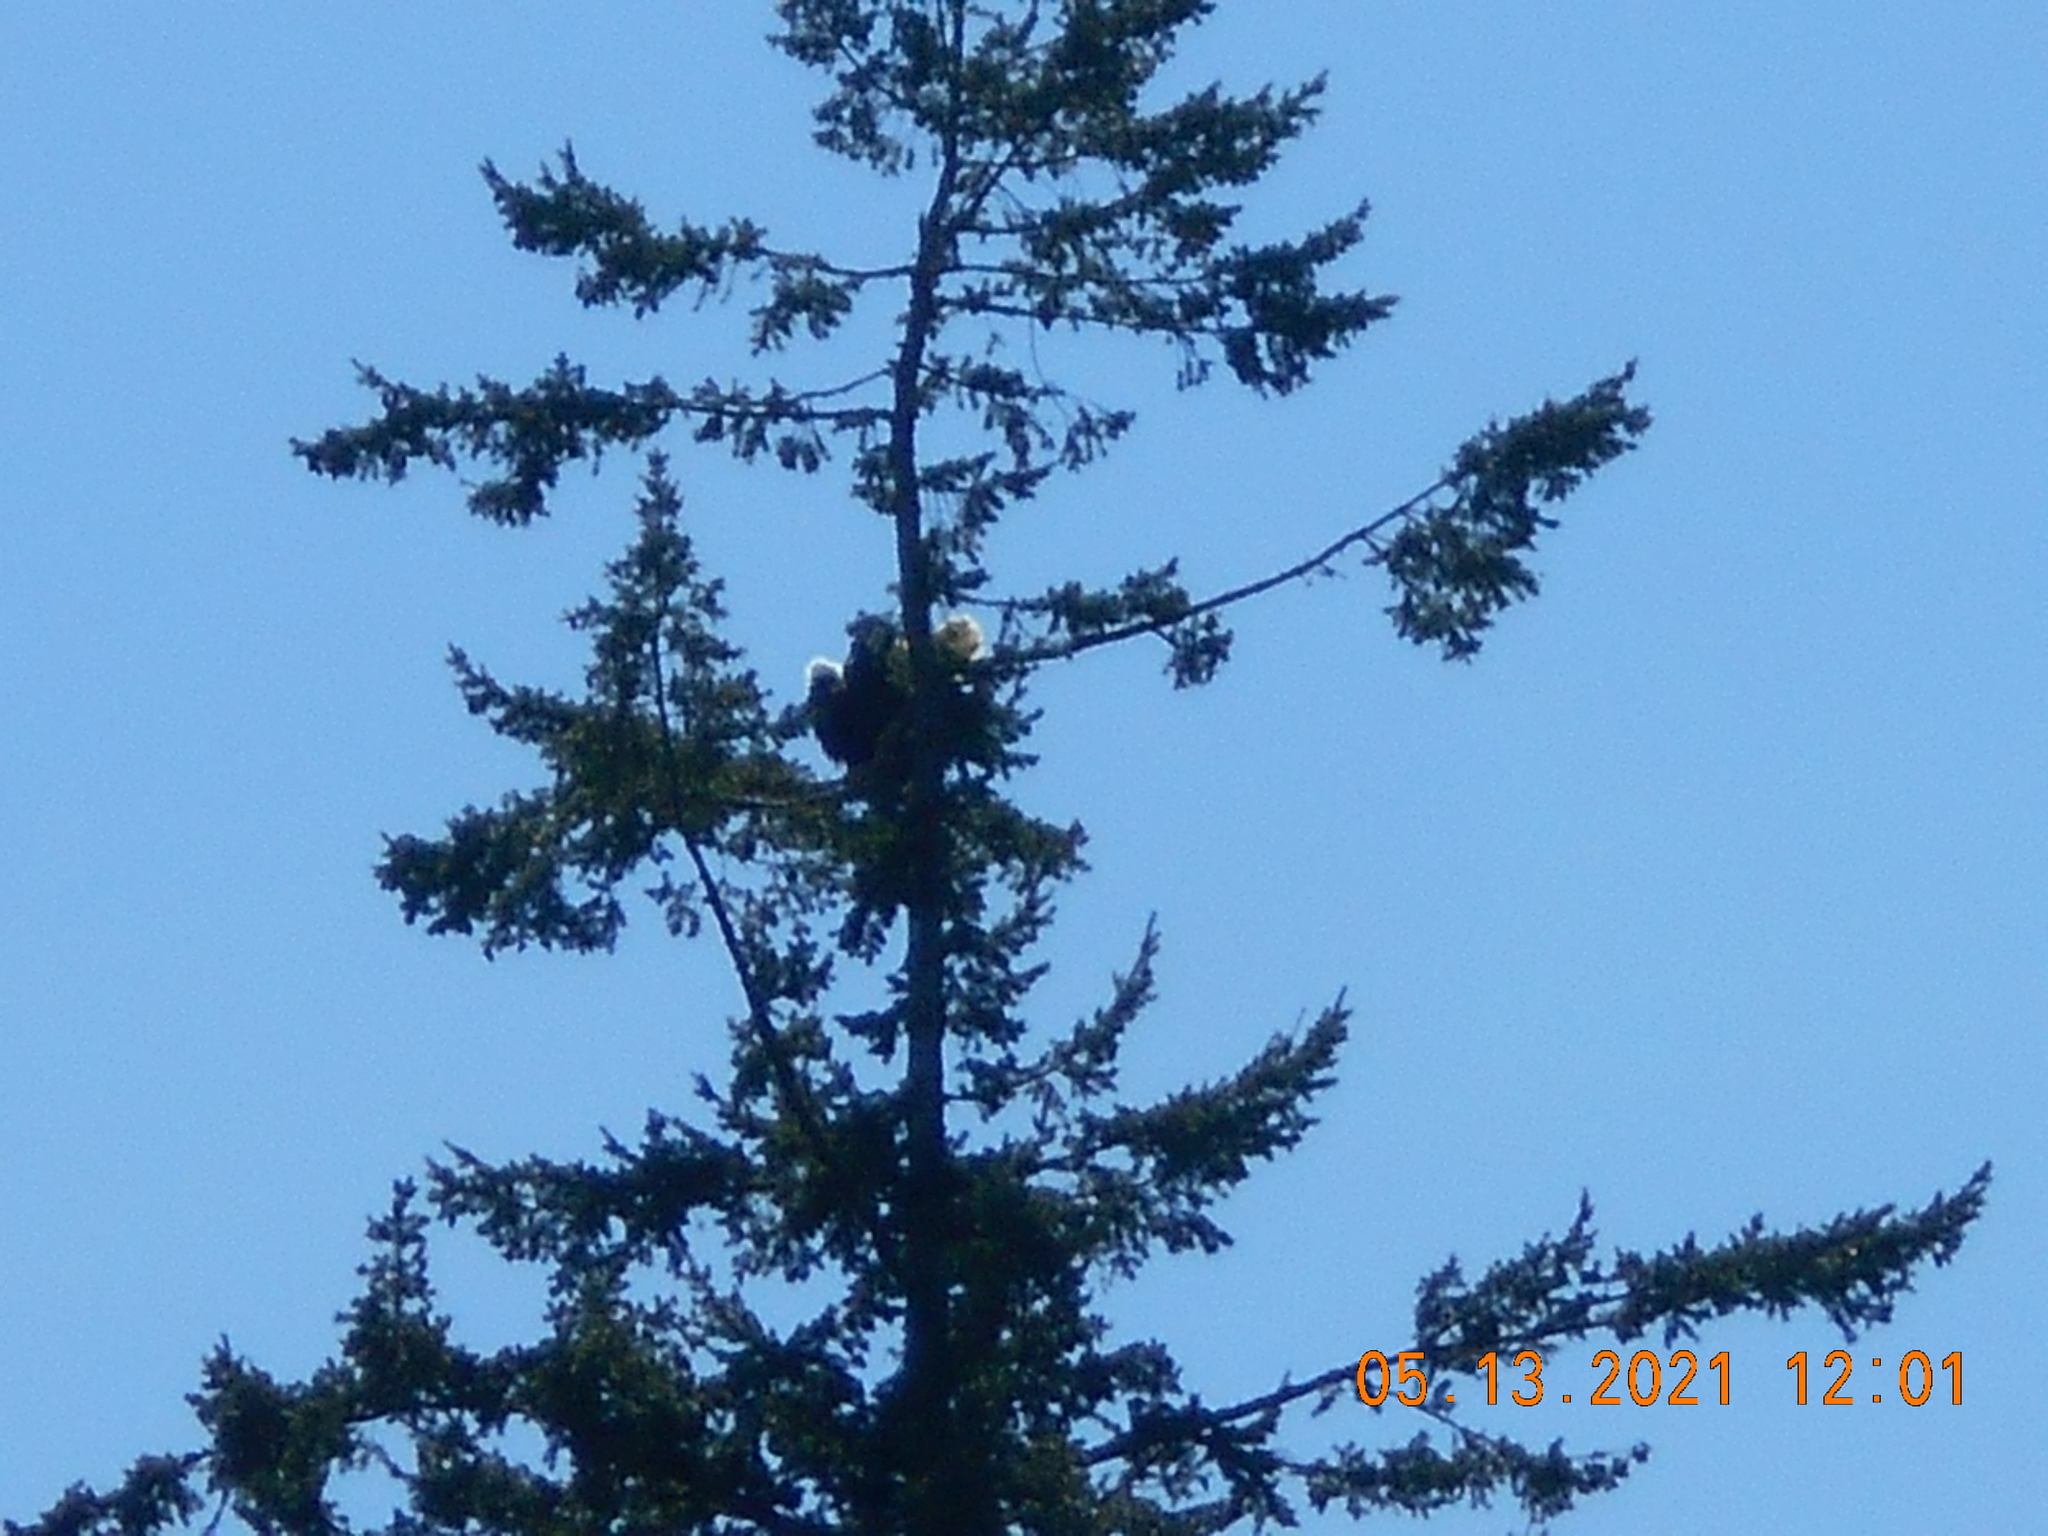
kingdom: Animalia
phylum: Chordata
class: Aves
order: Accipitriformes
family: Accipitridae
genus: Haliaeetus
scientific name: Haliaeetus leucocephalus
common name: Bald eagle
